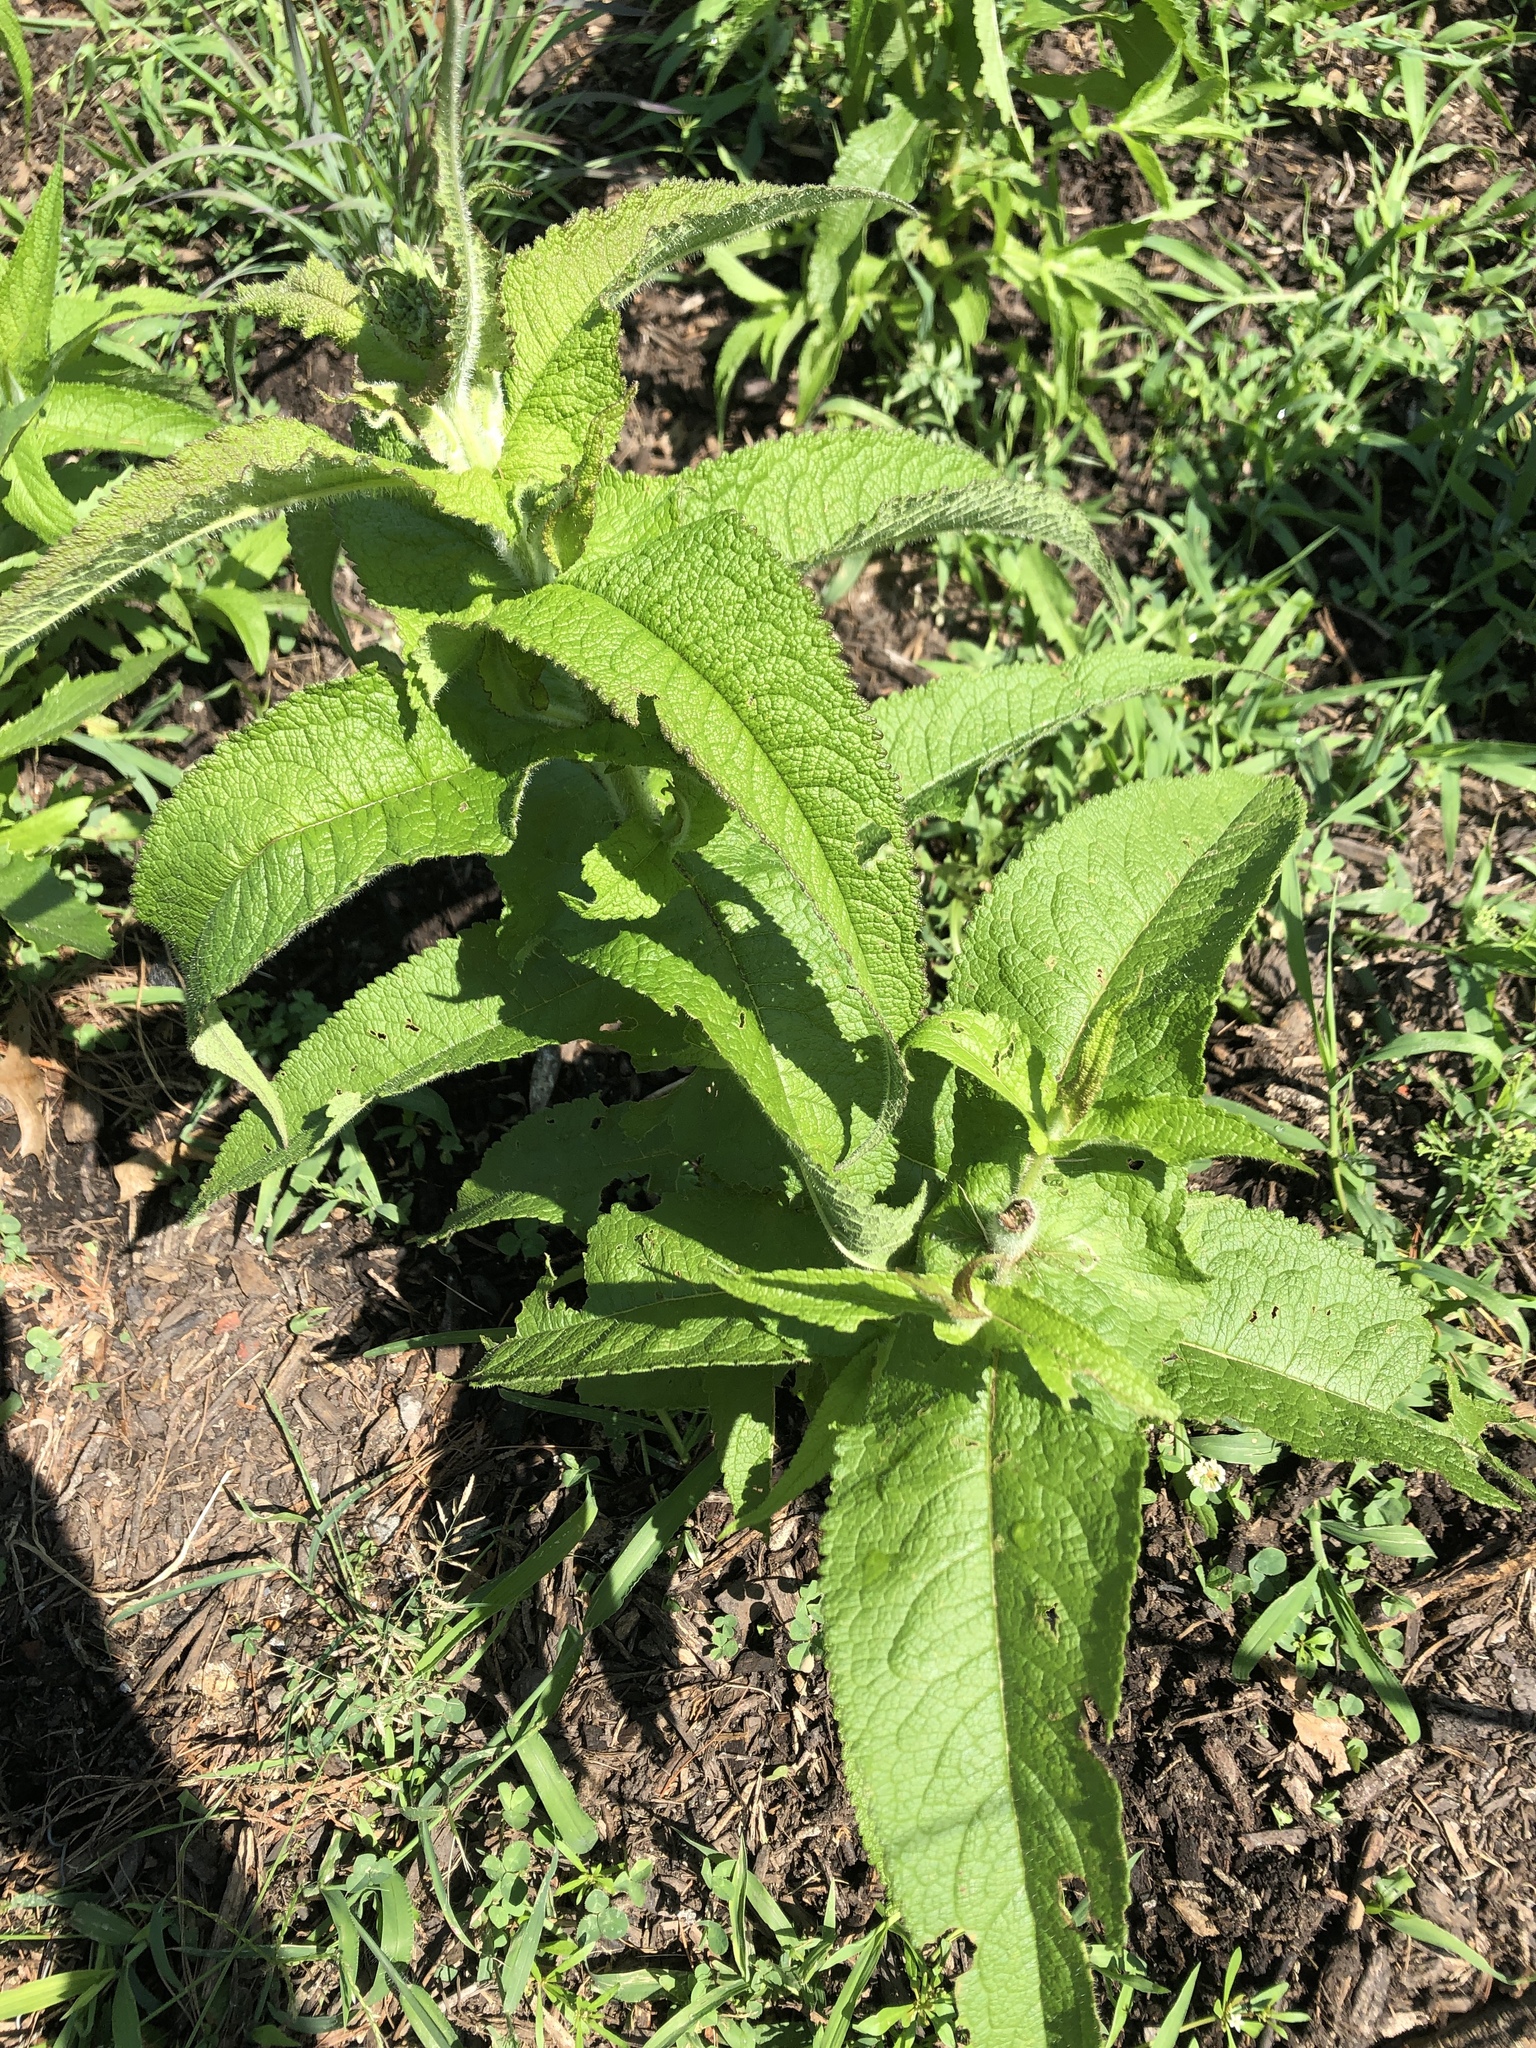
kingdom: Plantae
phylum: Tracheophyta
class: Magnoliopsida
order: Asterales
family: Asteraceae
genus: Eupatorium
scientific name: Eupatorium perfoliatum
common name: Boneset
